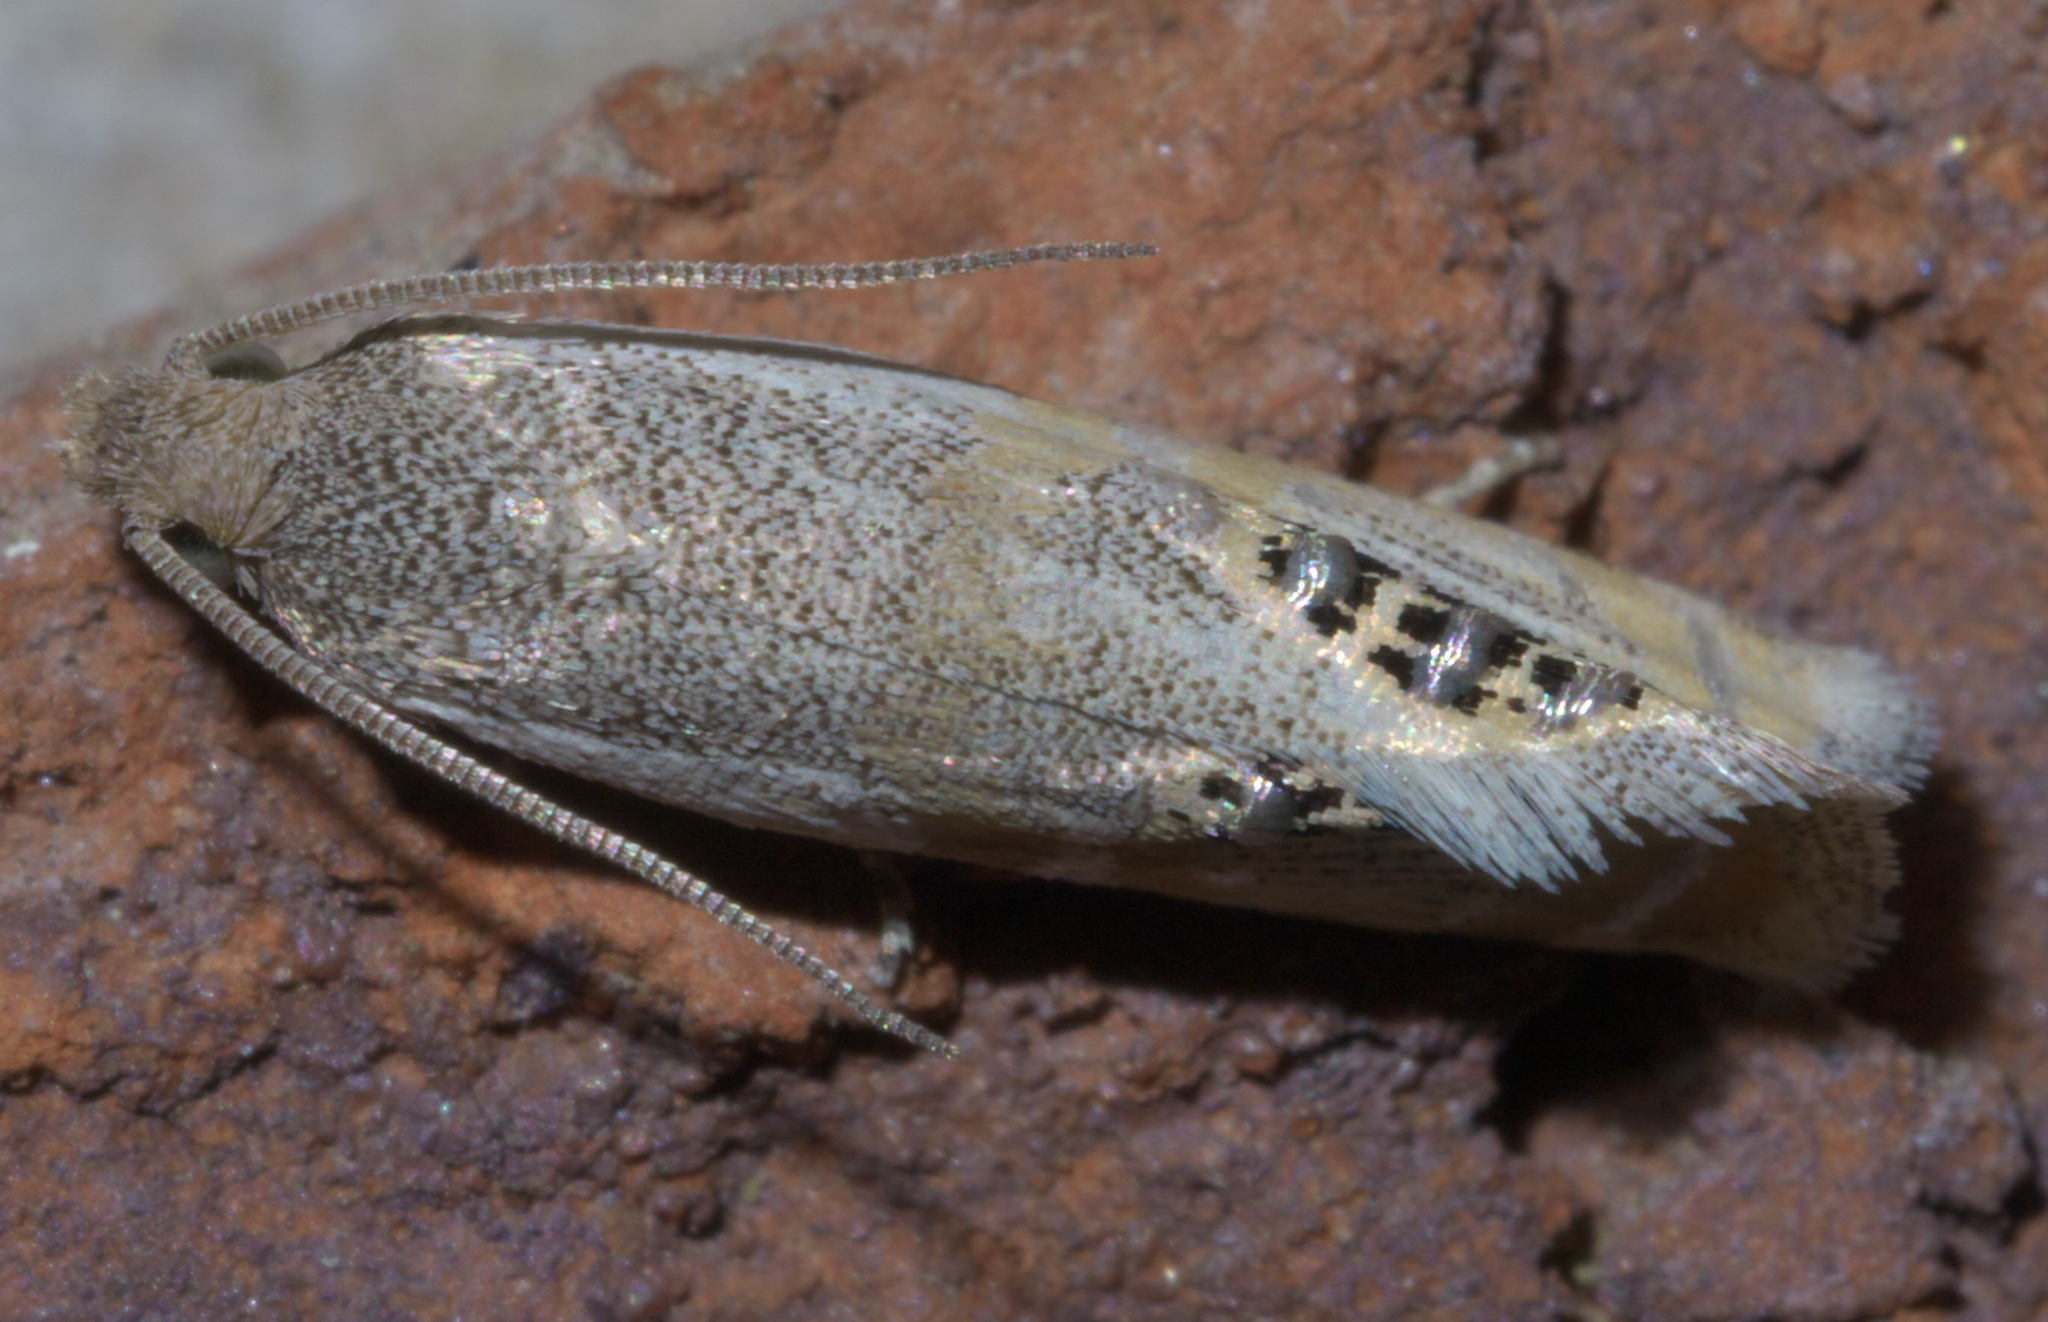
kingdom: Animalia
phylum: Arthropoda
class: Insecta
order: Lepidoptera
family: Tortricidae
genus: Pelochrista
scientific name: Pelochrista scintillana
